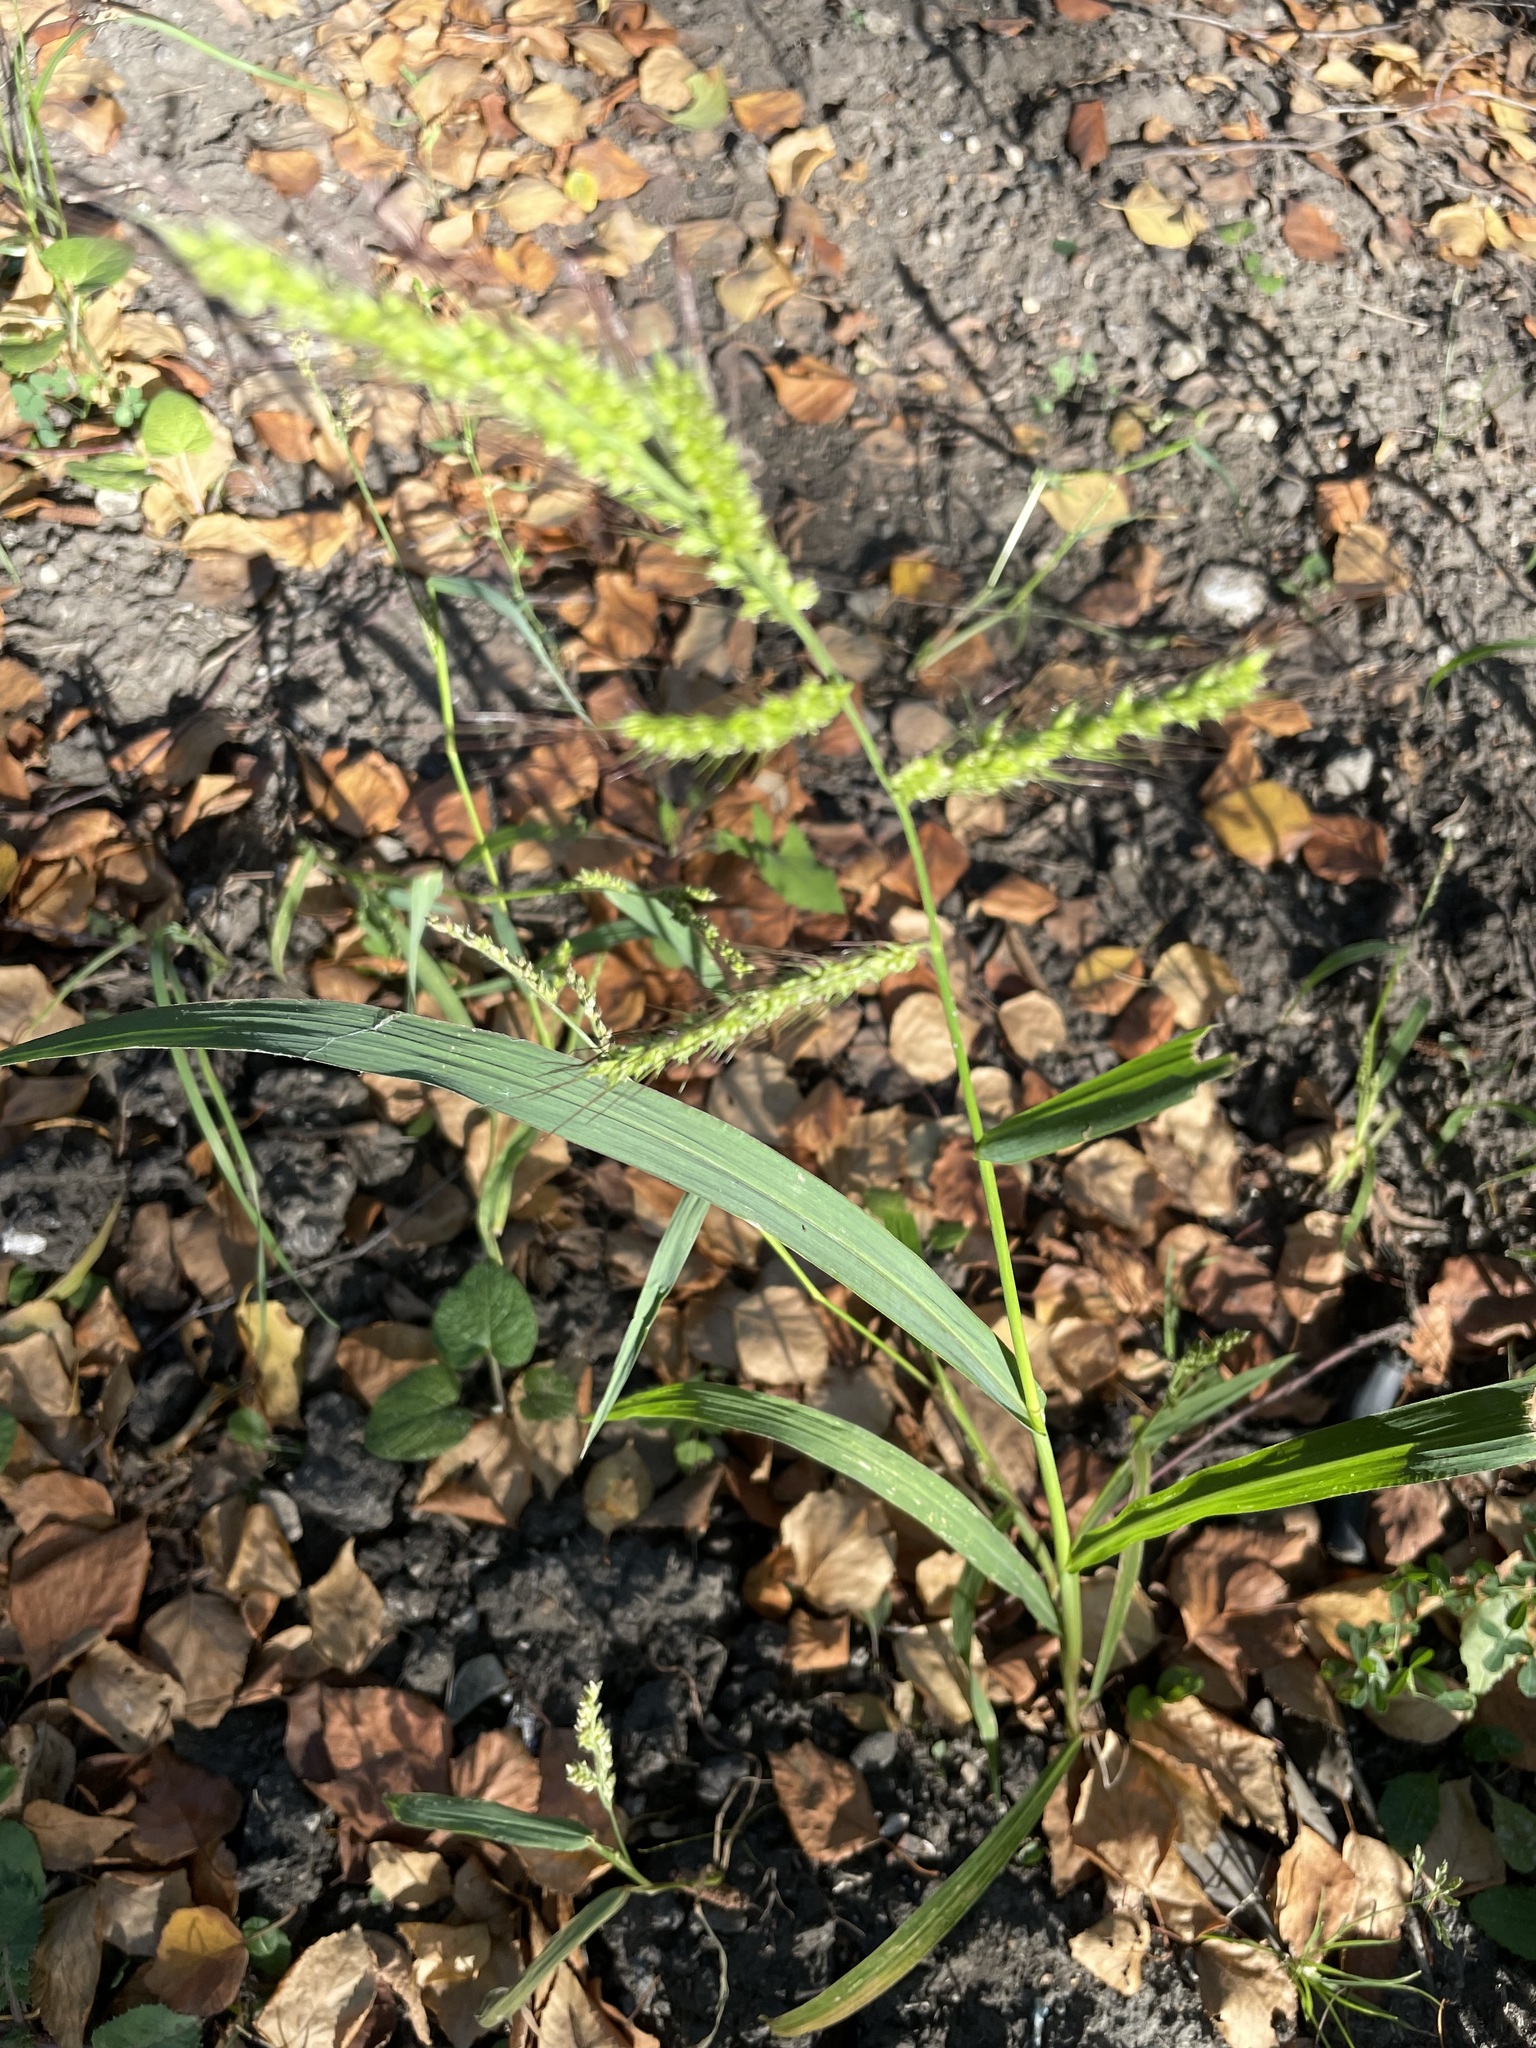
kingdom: Plantae
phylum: Tracheophyta
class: Liliopsida
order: Poales
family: Poaceae
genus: Echinochloa
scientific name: Echinochloa crus-galli
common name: Cockspur
